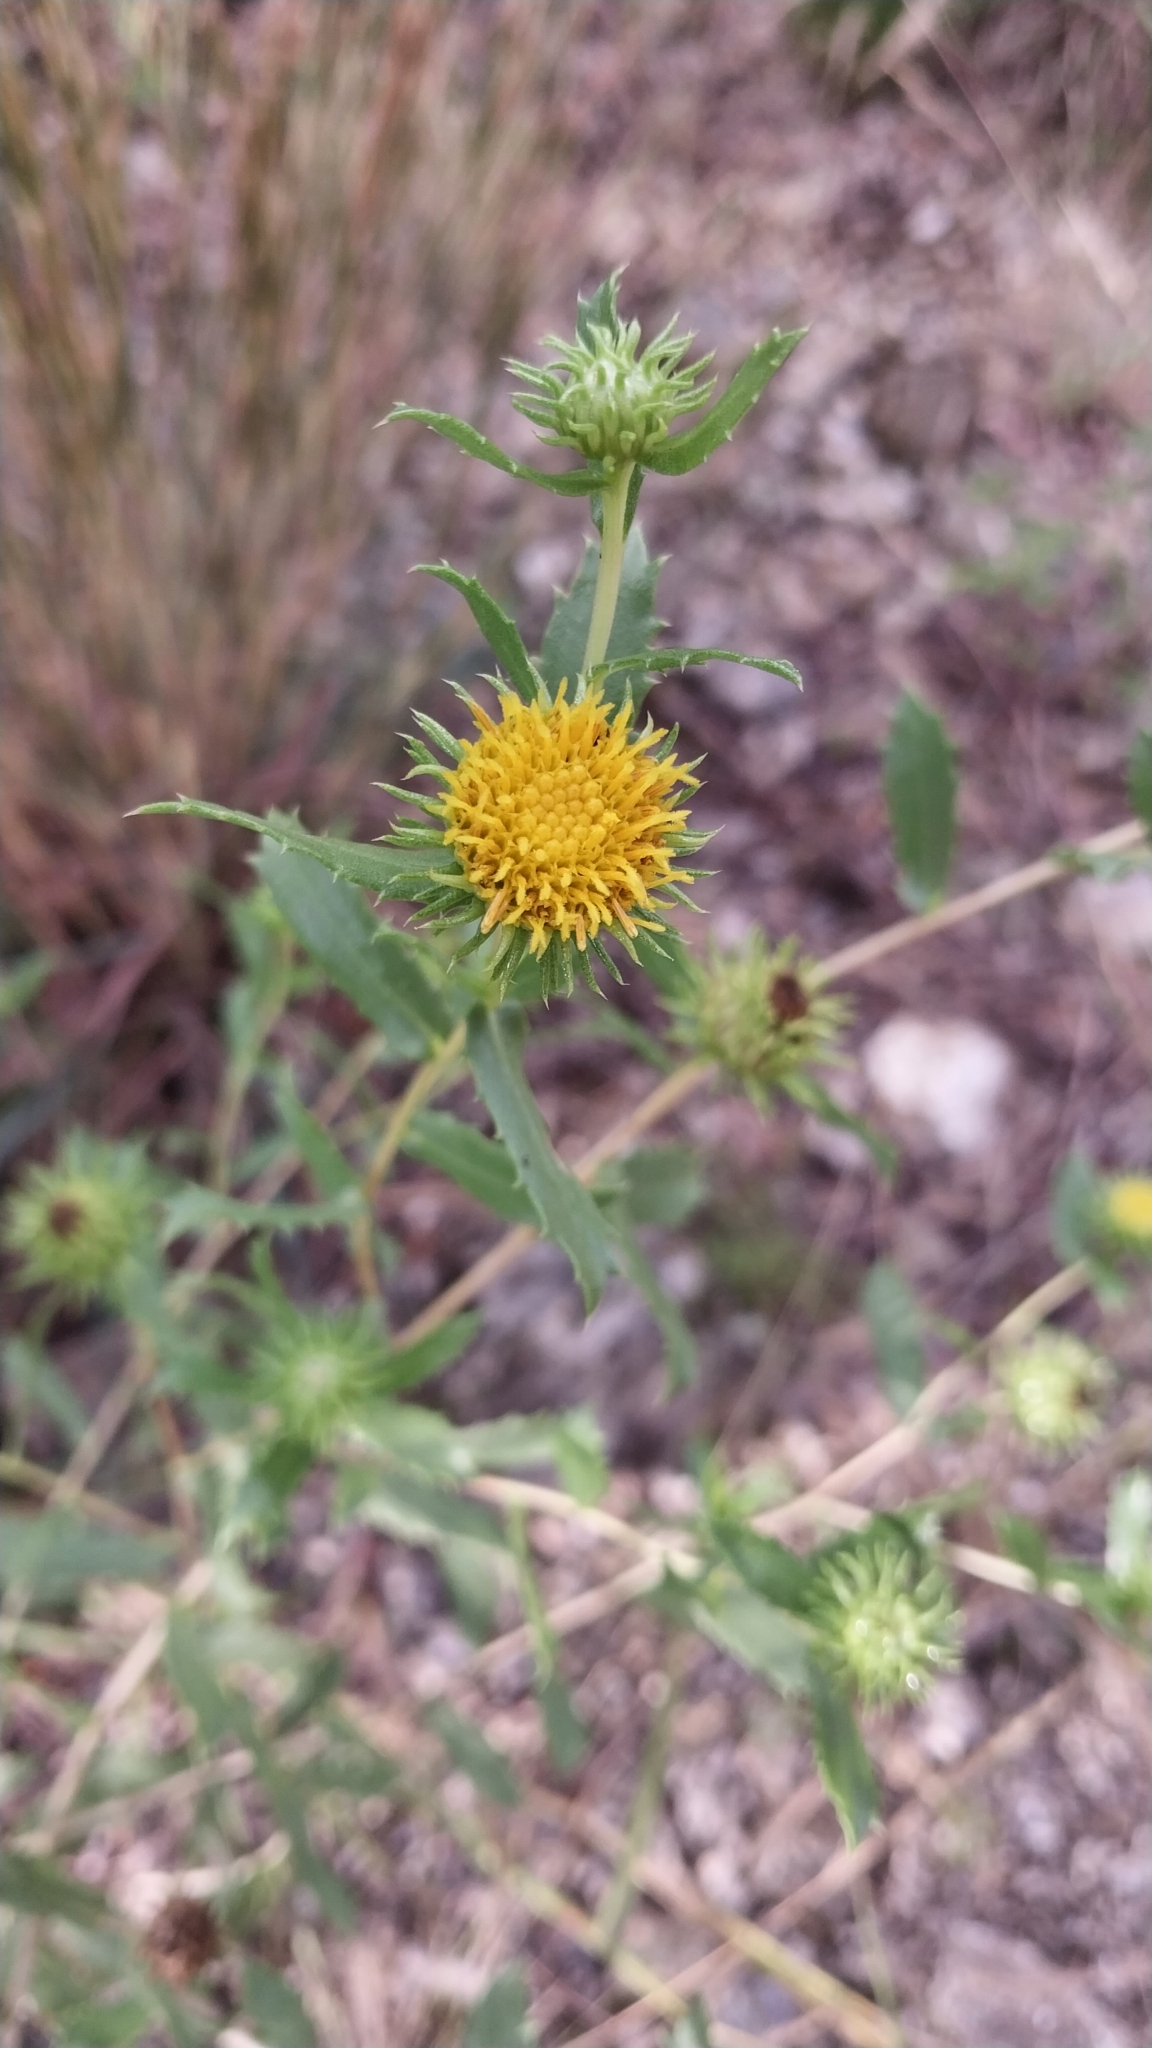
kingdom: Plantae
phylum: Tracheophyta
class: Magnoliopsida
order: Asterales
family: Asteraceae
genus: Grindelia
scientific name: Grindelia pulchella
